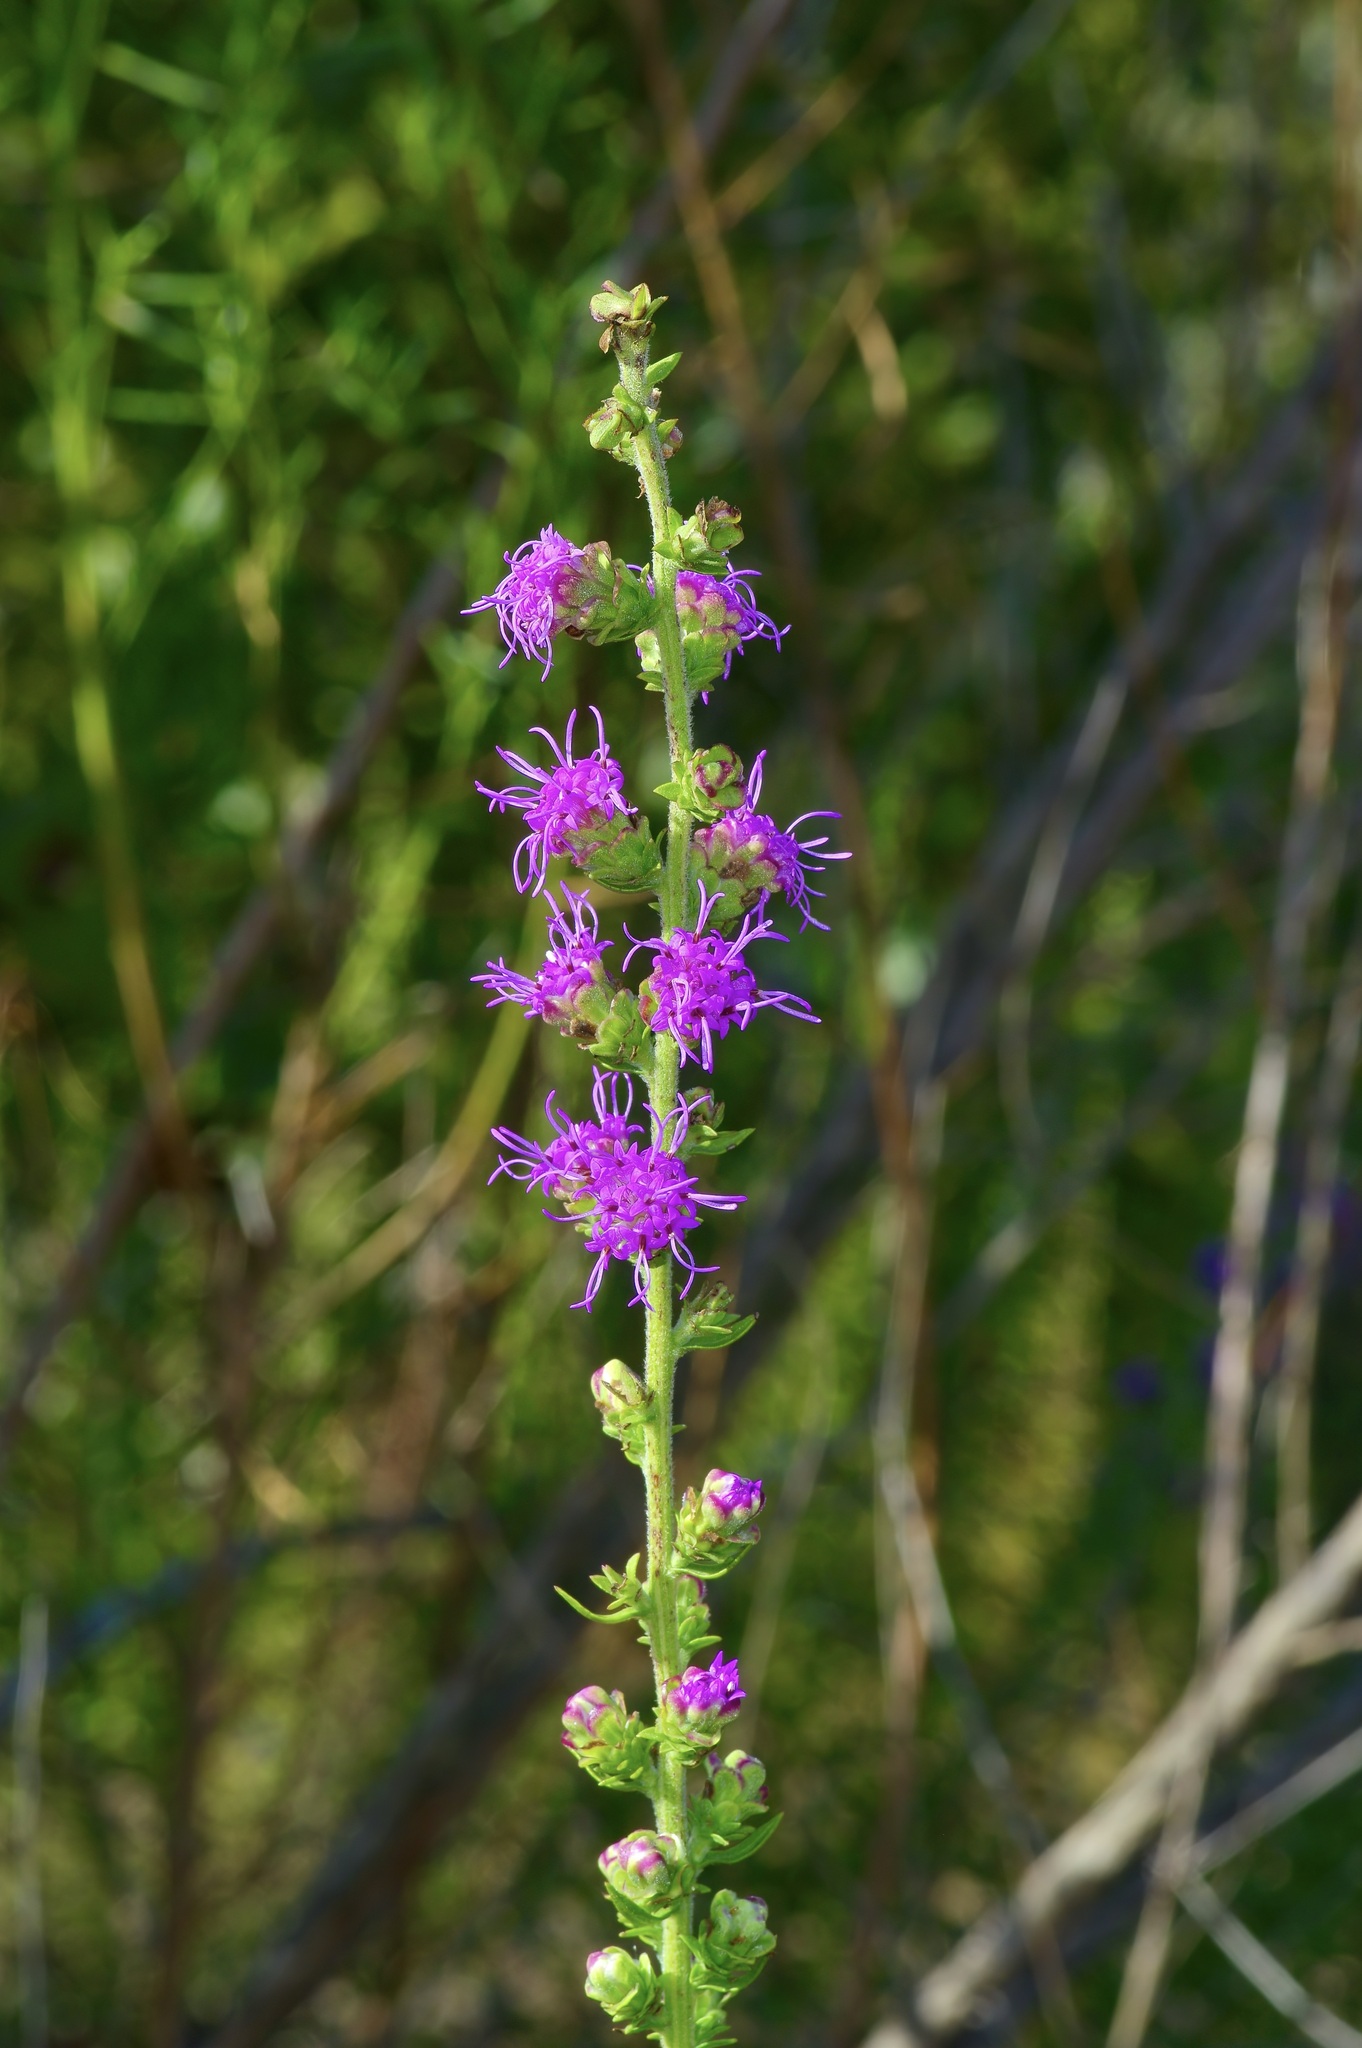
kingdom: Plantae
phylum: Tracheophyta
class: Magnoliopsida
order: Asterales
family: Asteraceae
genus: Liatris
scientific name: Liatris aspera
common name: Lacerate blazing-star
